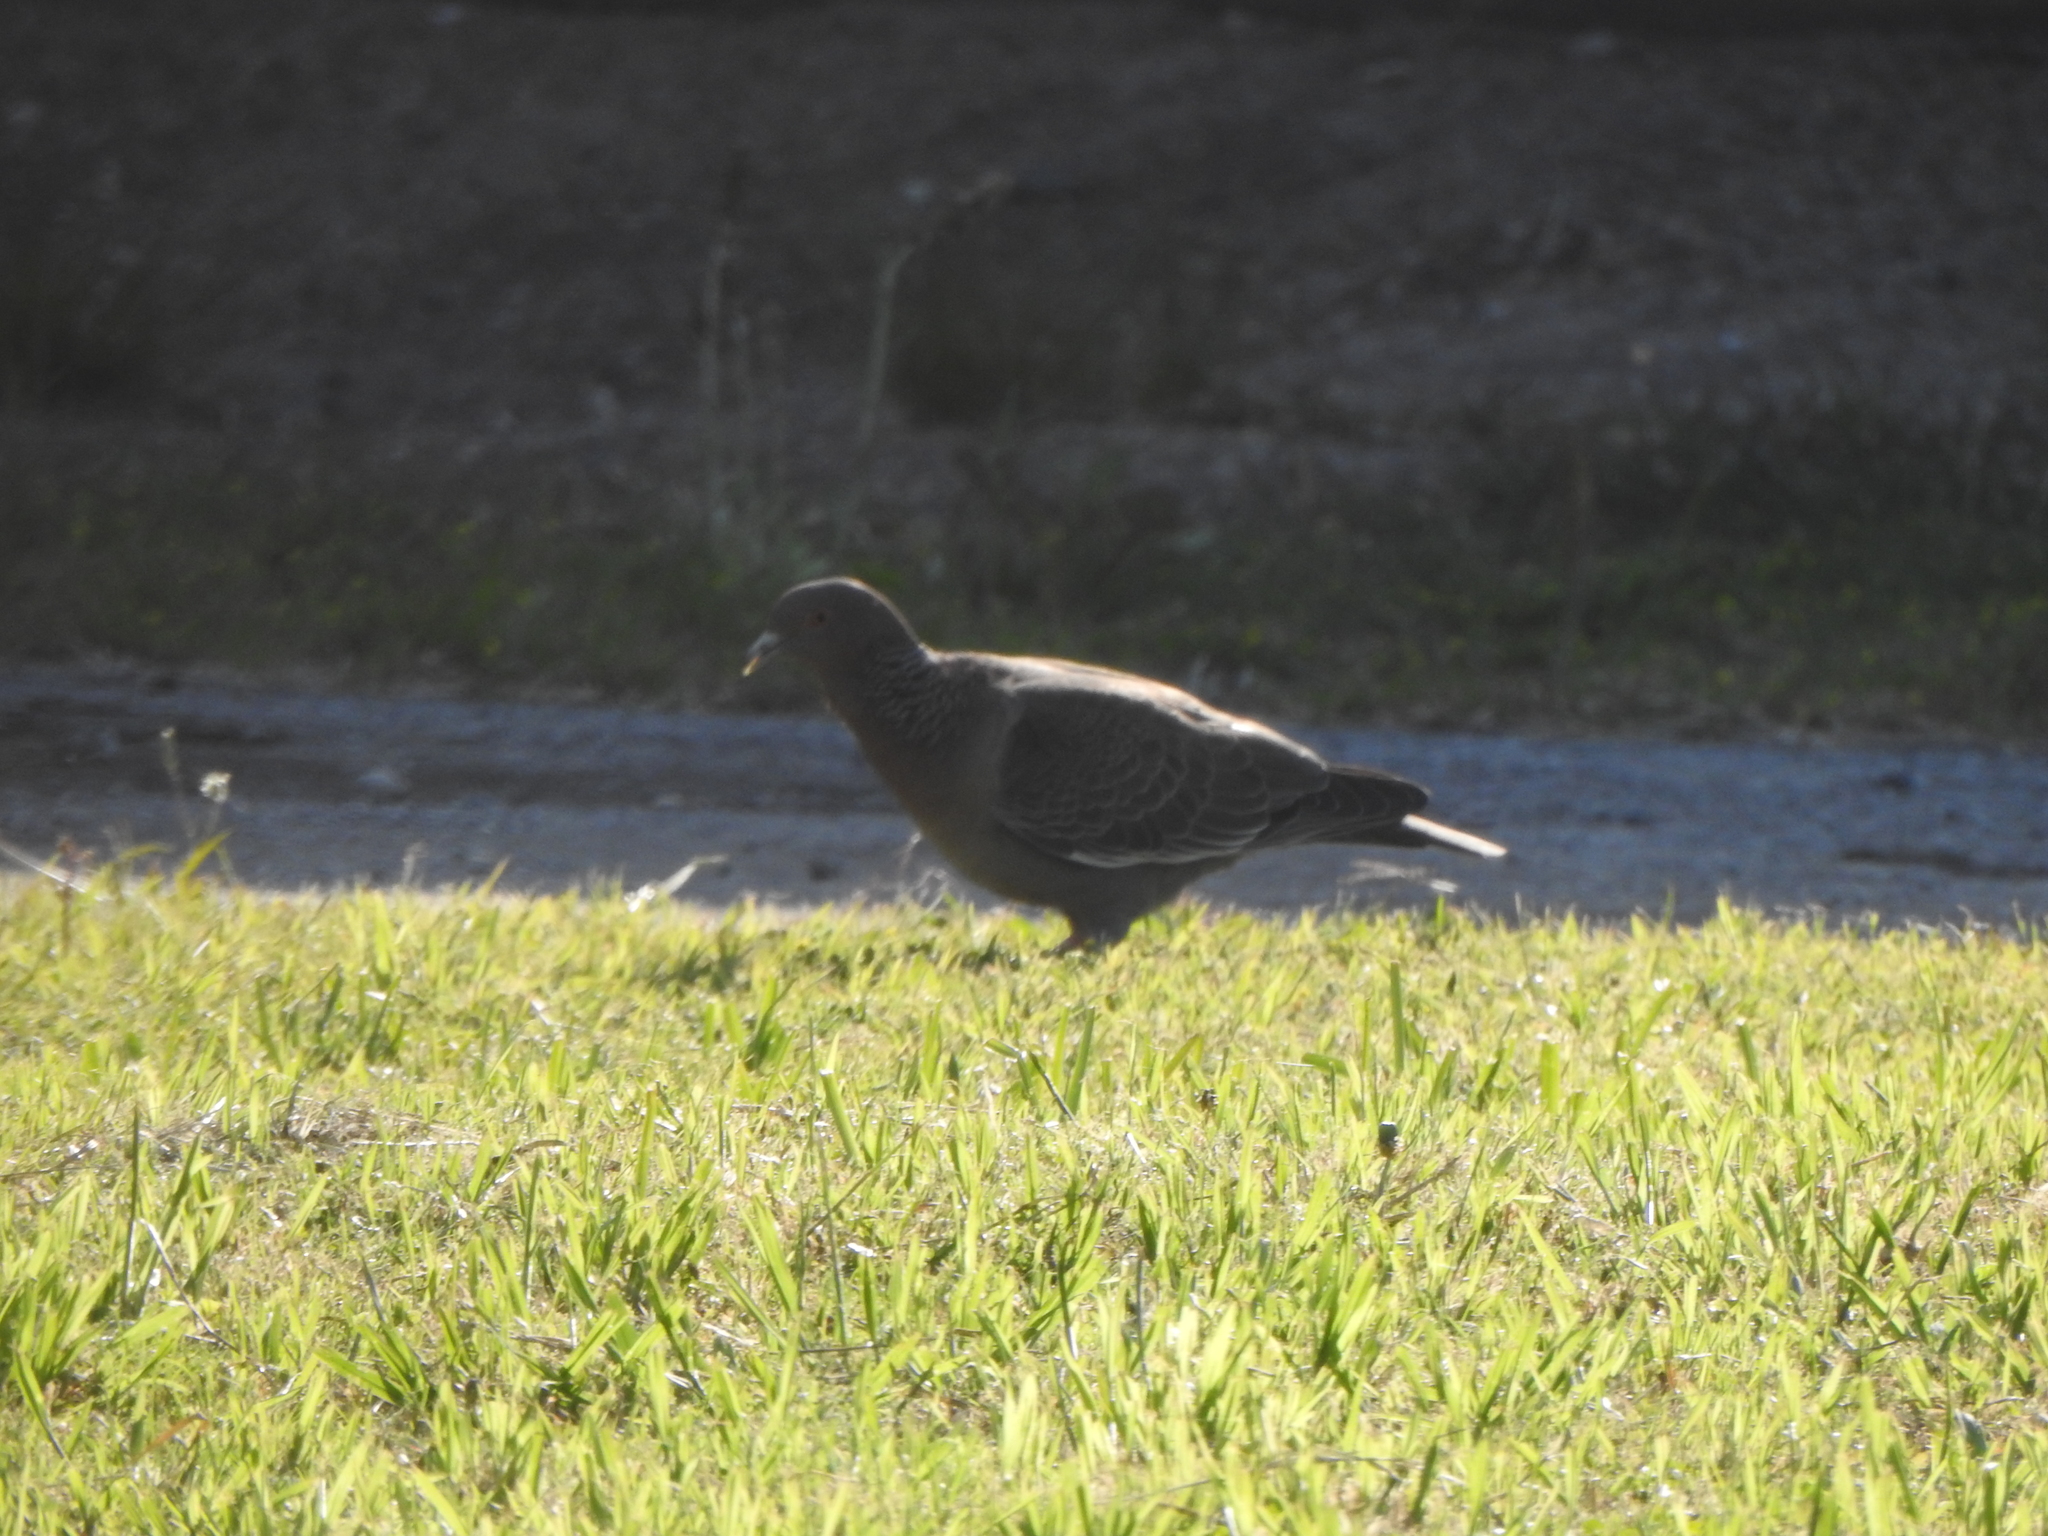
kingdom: Animalia
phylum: Chordata
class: Aves
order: Columbiformes
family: Columbidae
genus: Patagioenas
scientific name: Patagioenas picazuro
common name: Picazuro pigeon
